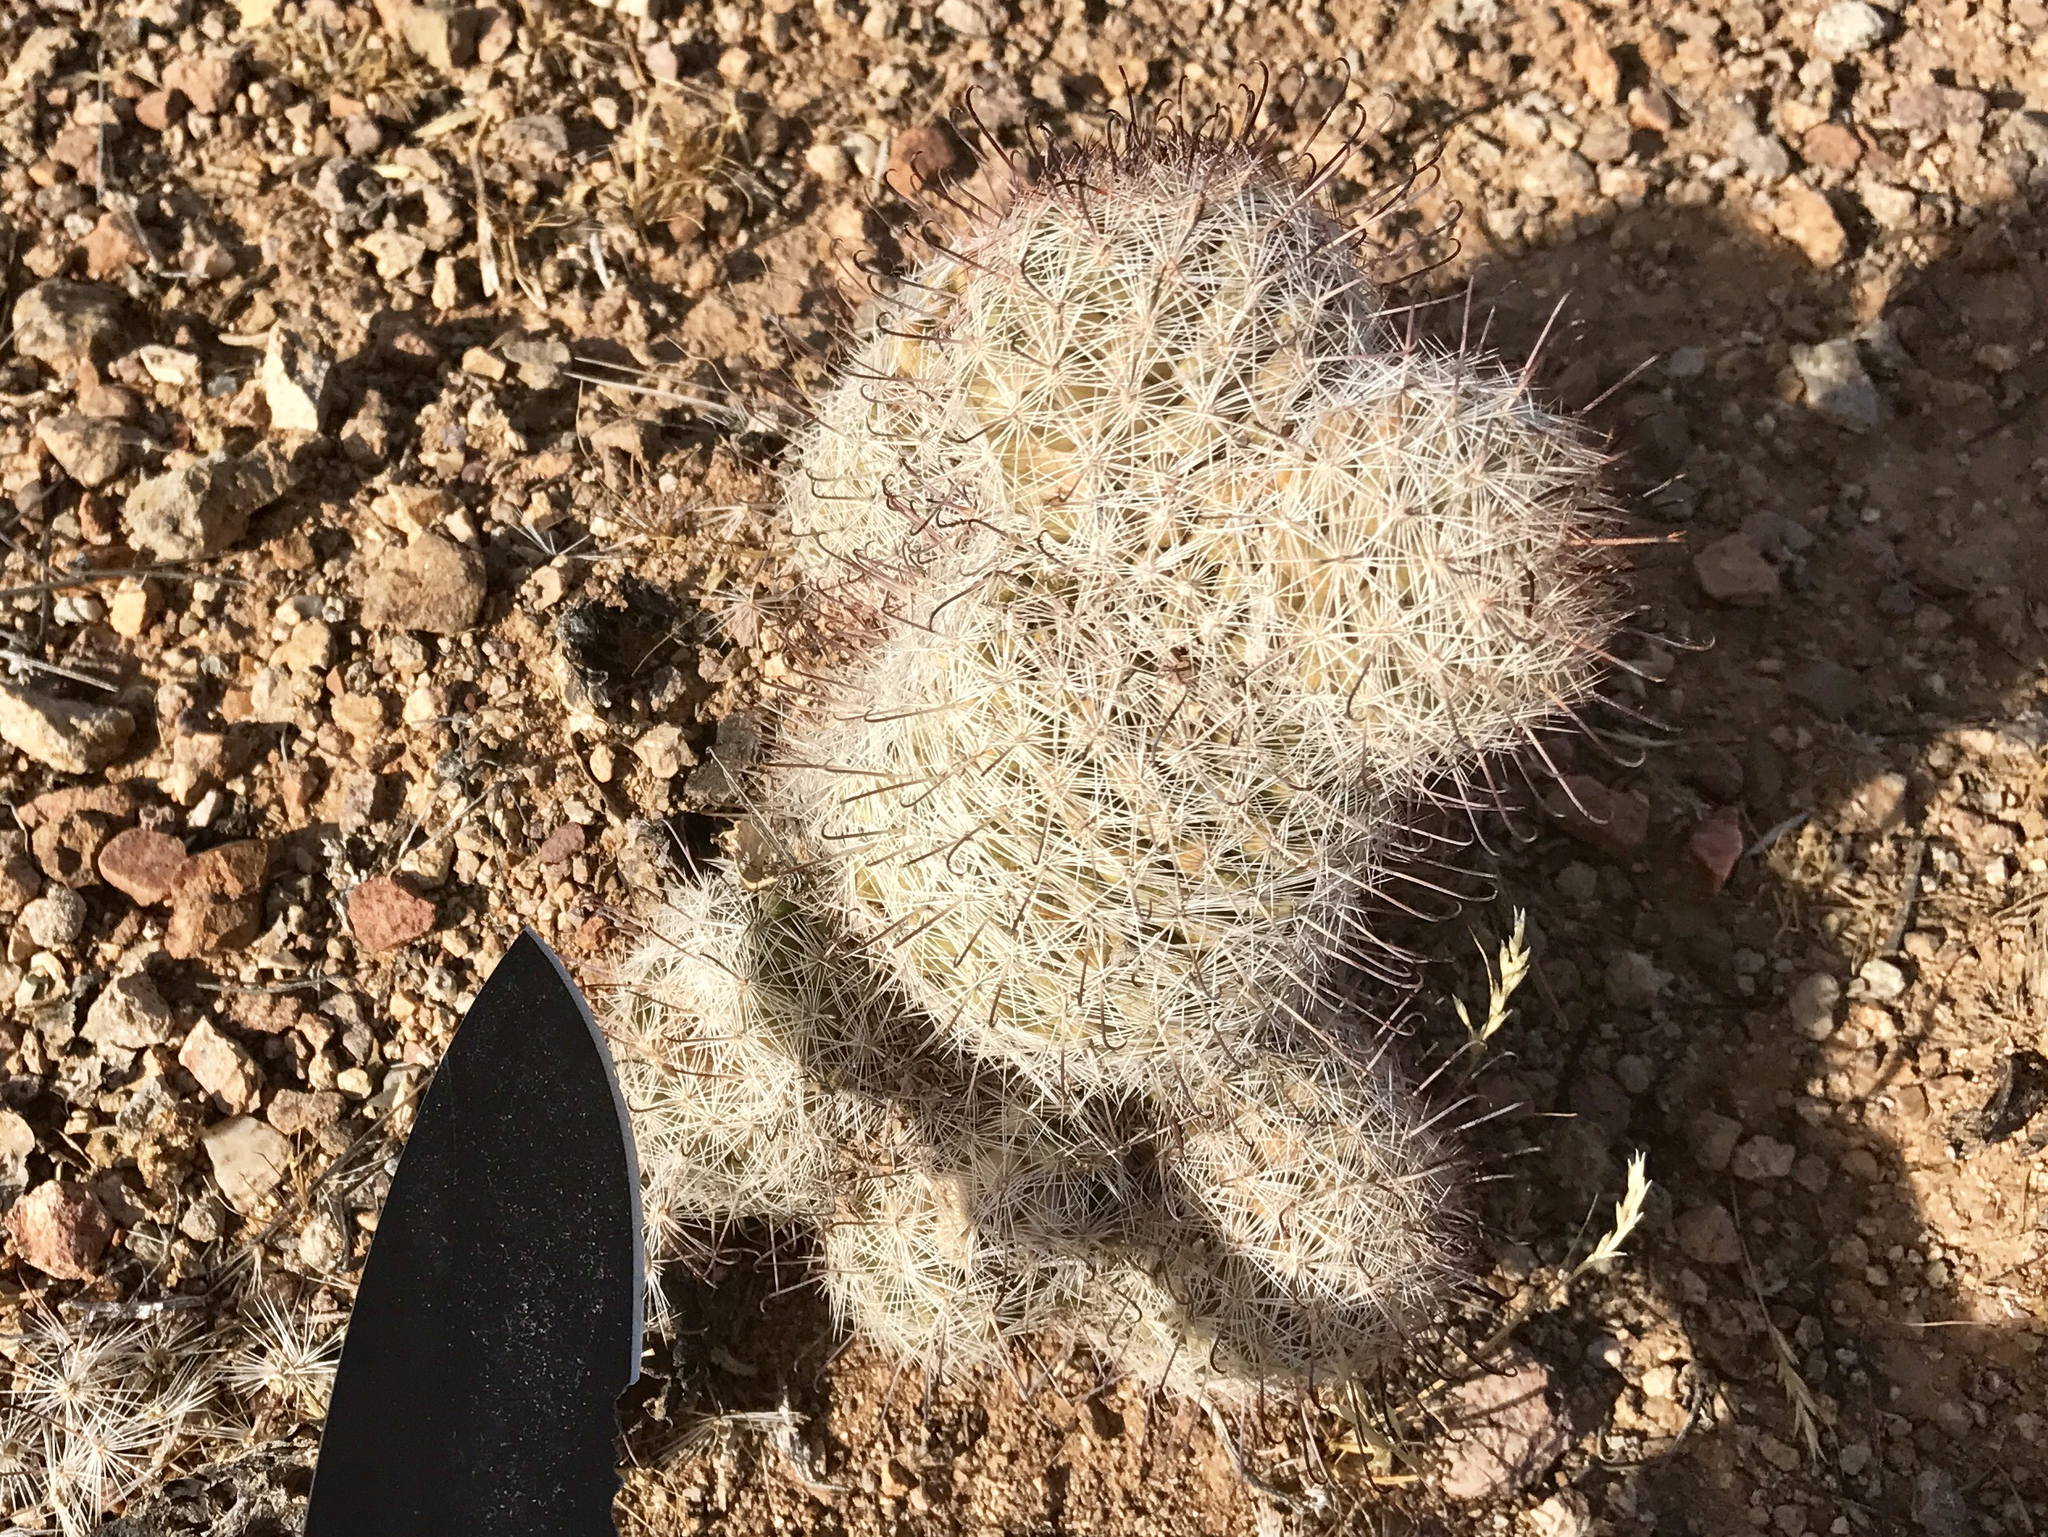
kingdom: Plantae
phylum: Tracheophyta
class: Magnoliopsida
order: Caryophyllales
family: Cactaceae
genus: Cochemiea
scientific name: Cochemiea grahamii
